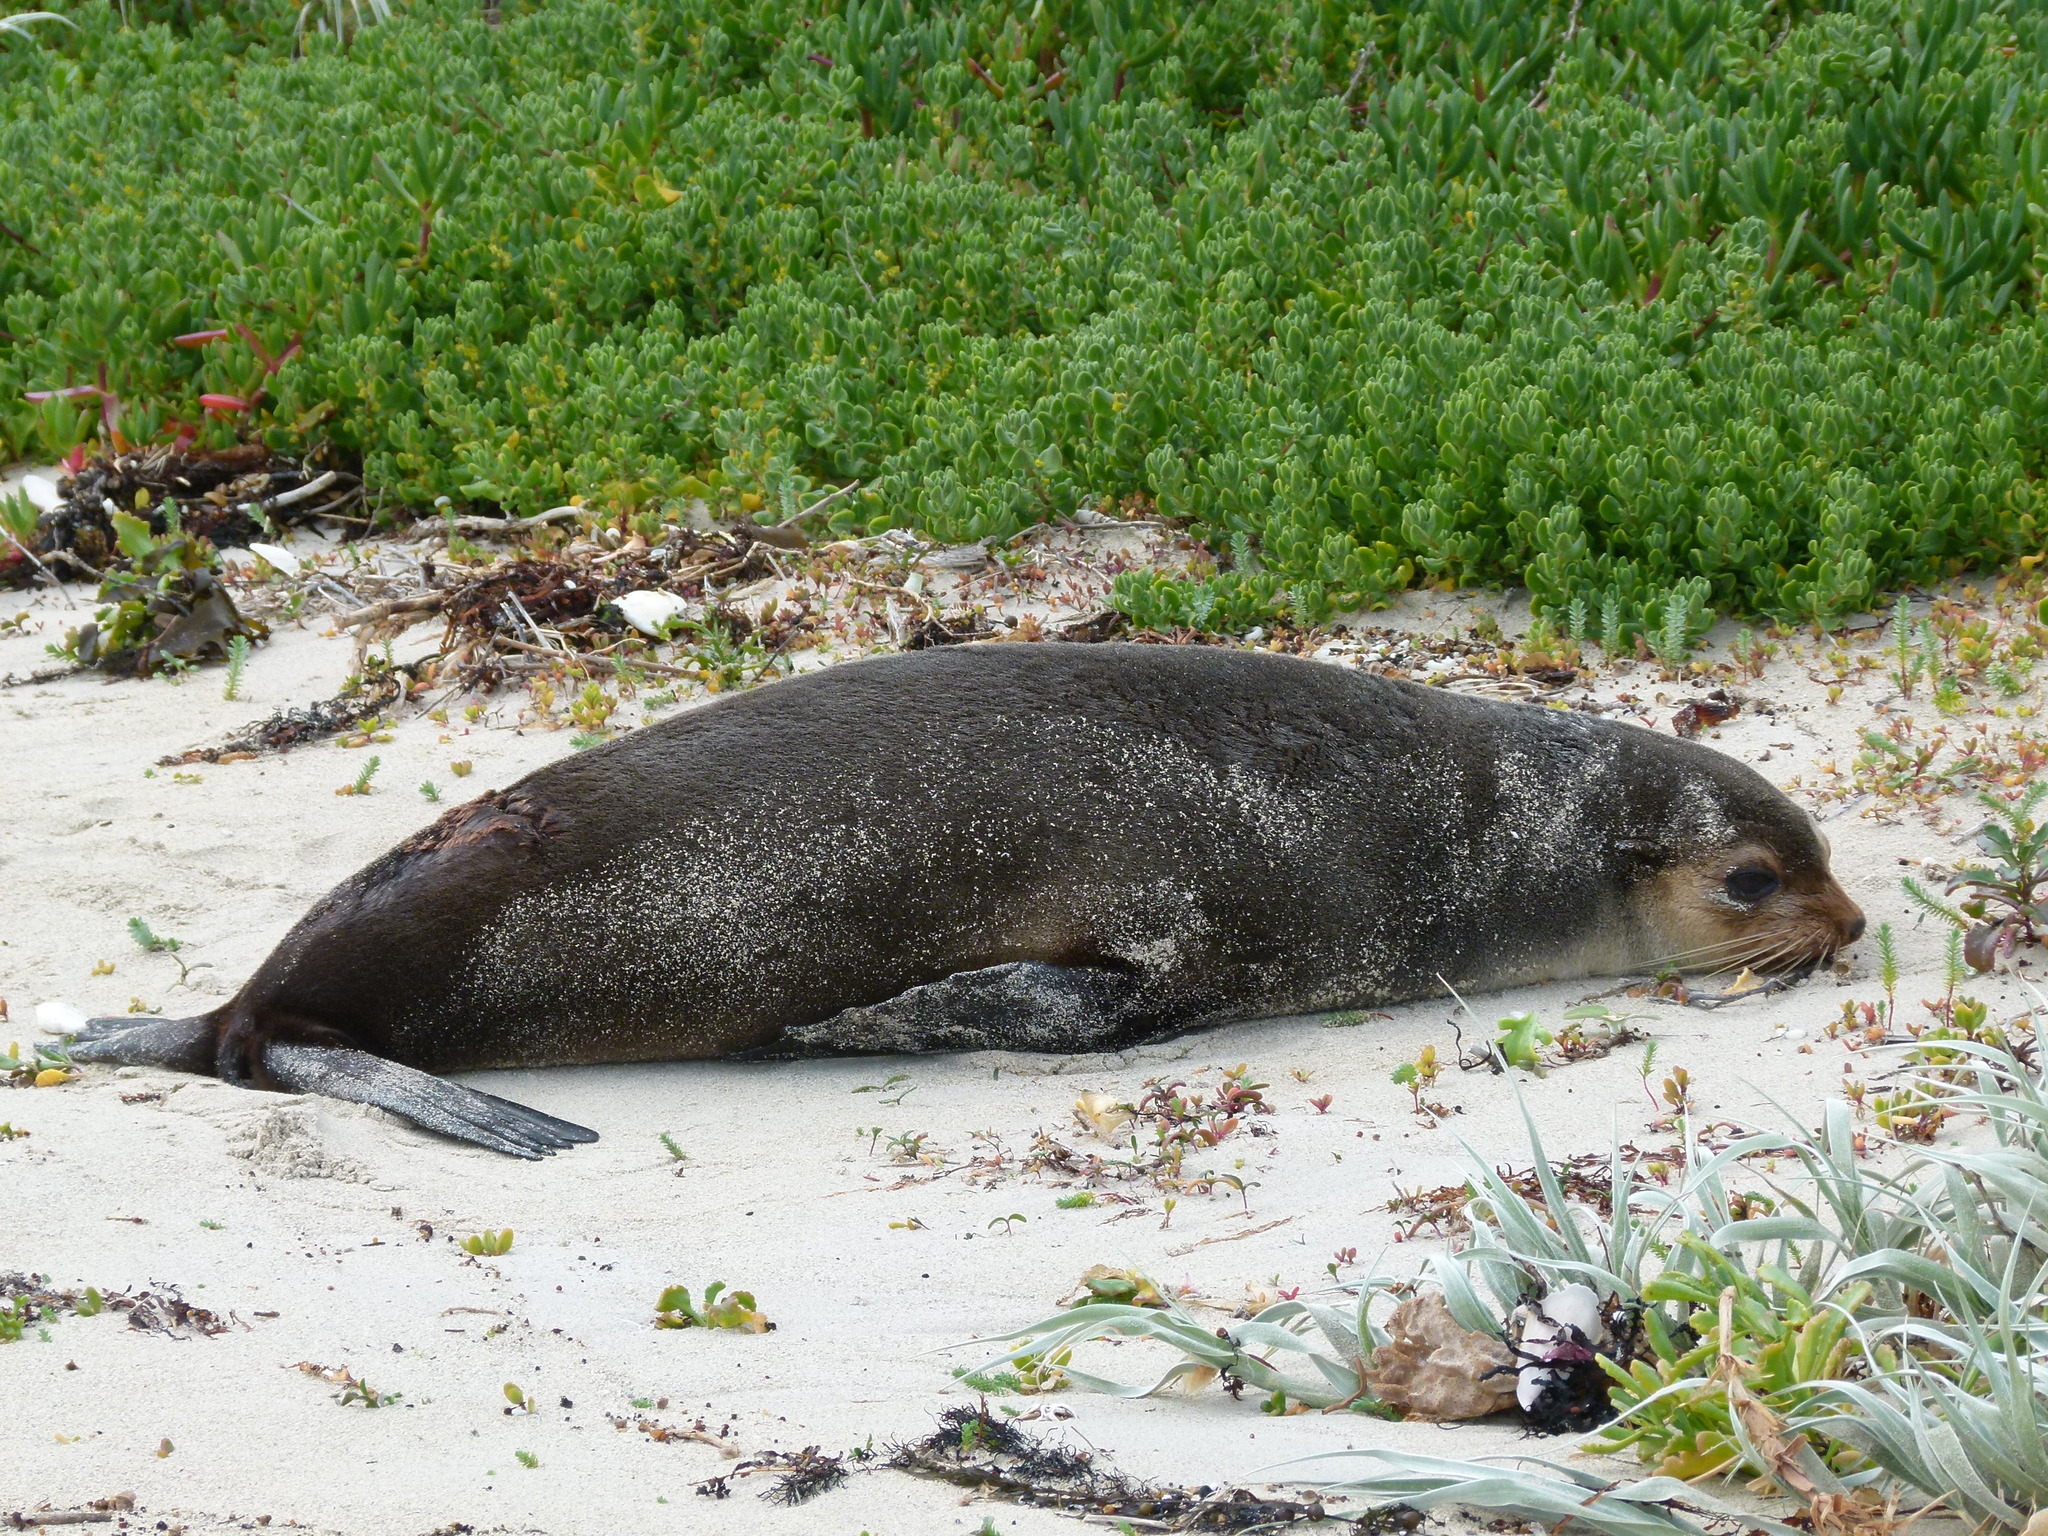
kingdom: Animalia
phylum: Chordata
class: Mammalia
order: Carnivora
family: Otariidae
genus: Neophoca
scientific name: Neophoca cinerea
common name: Australian sea lion
